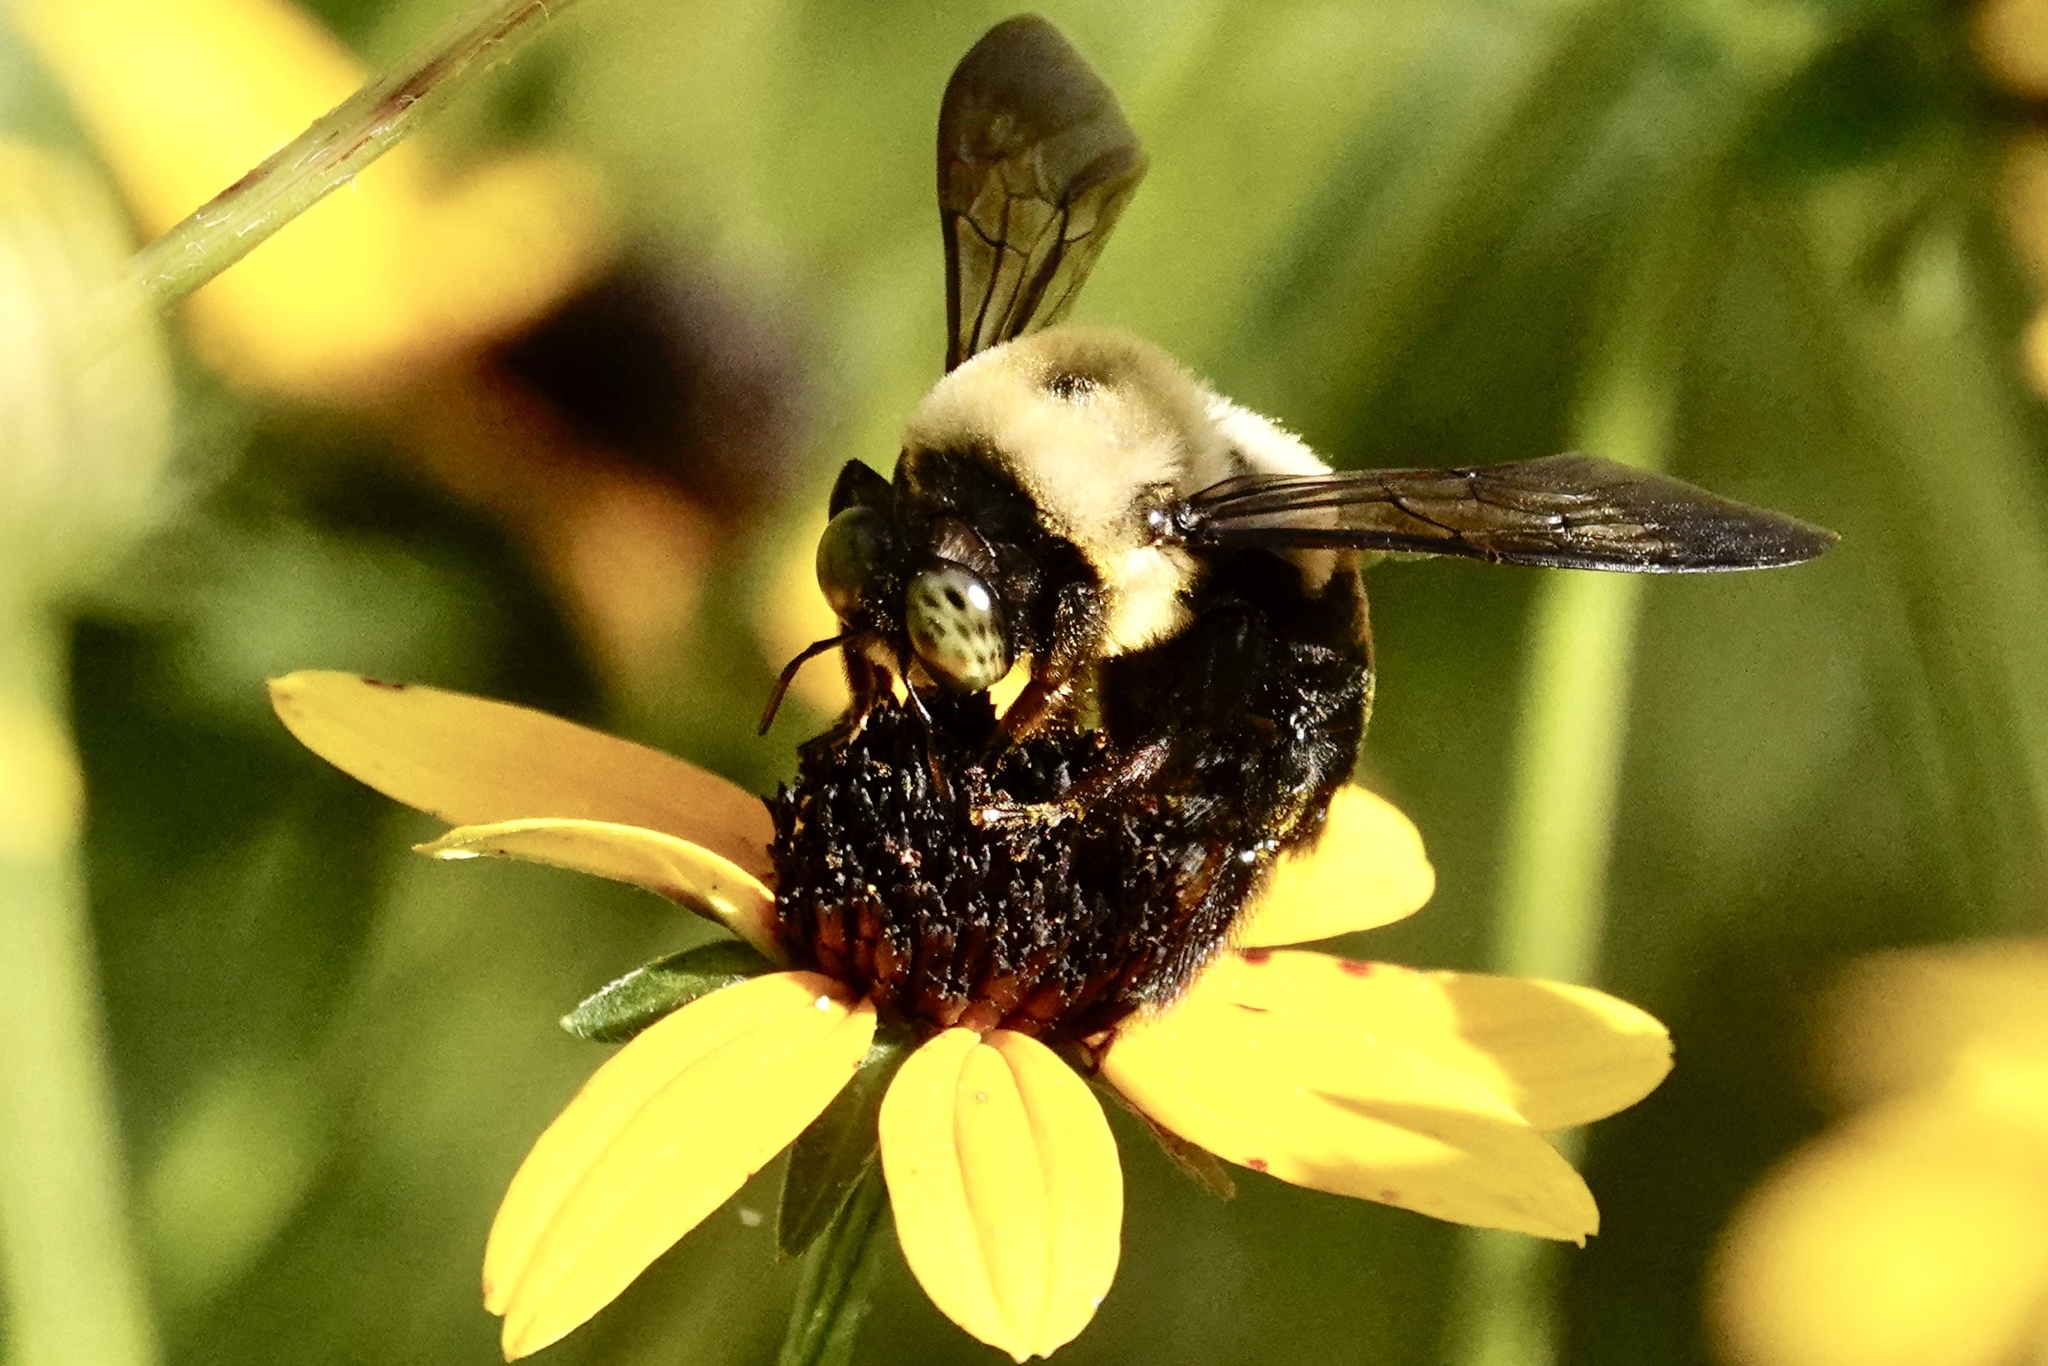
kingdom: Animalia
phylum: Arthropoda
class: Insecta
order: Hymenoptera
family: Apidae
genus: Xylocopa
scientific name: Xylocopa virginica
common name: Carpenter bee
